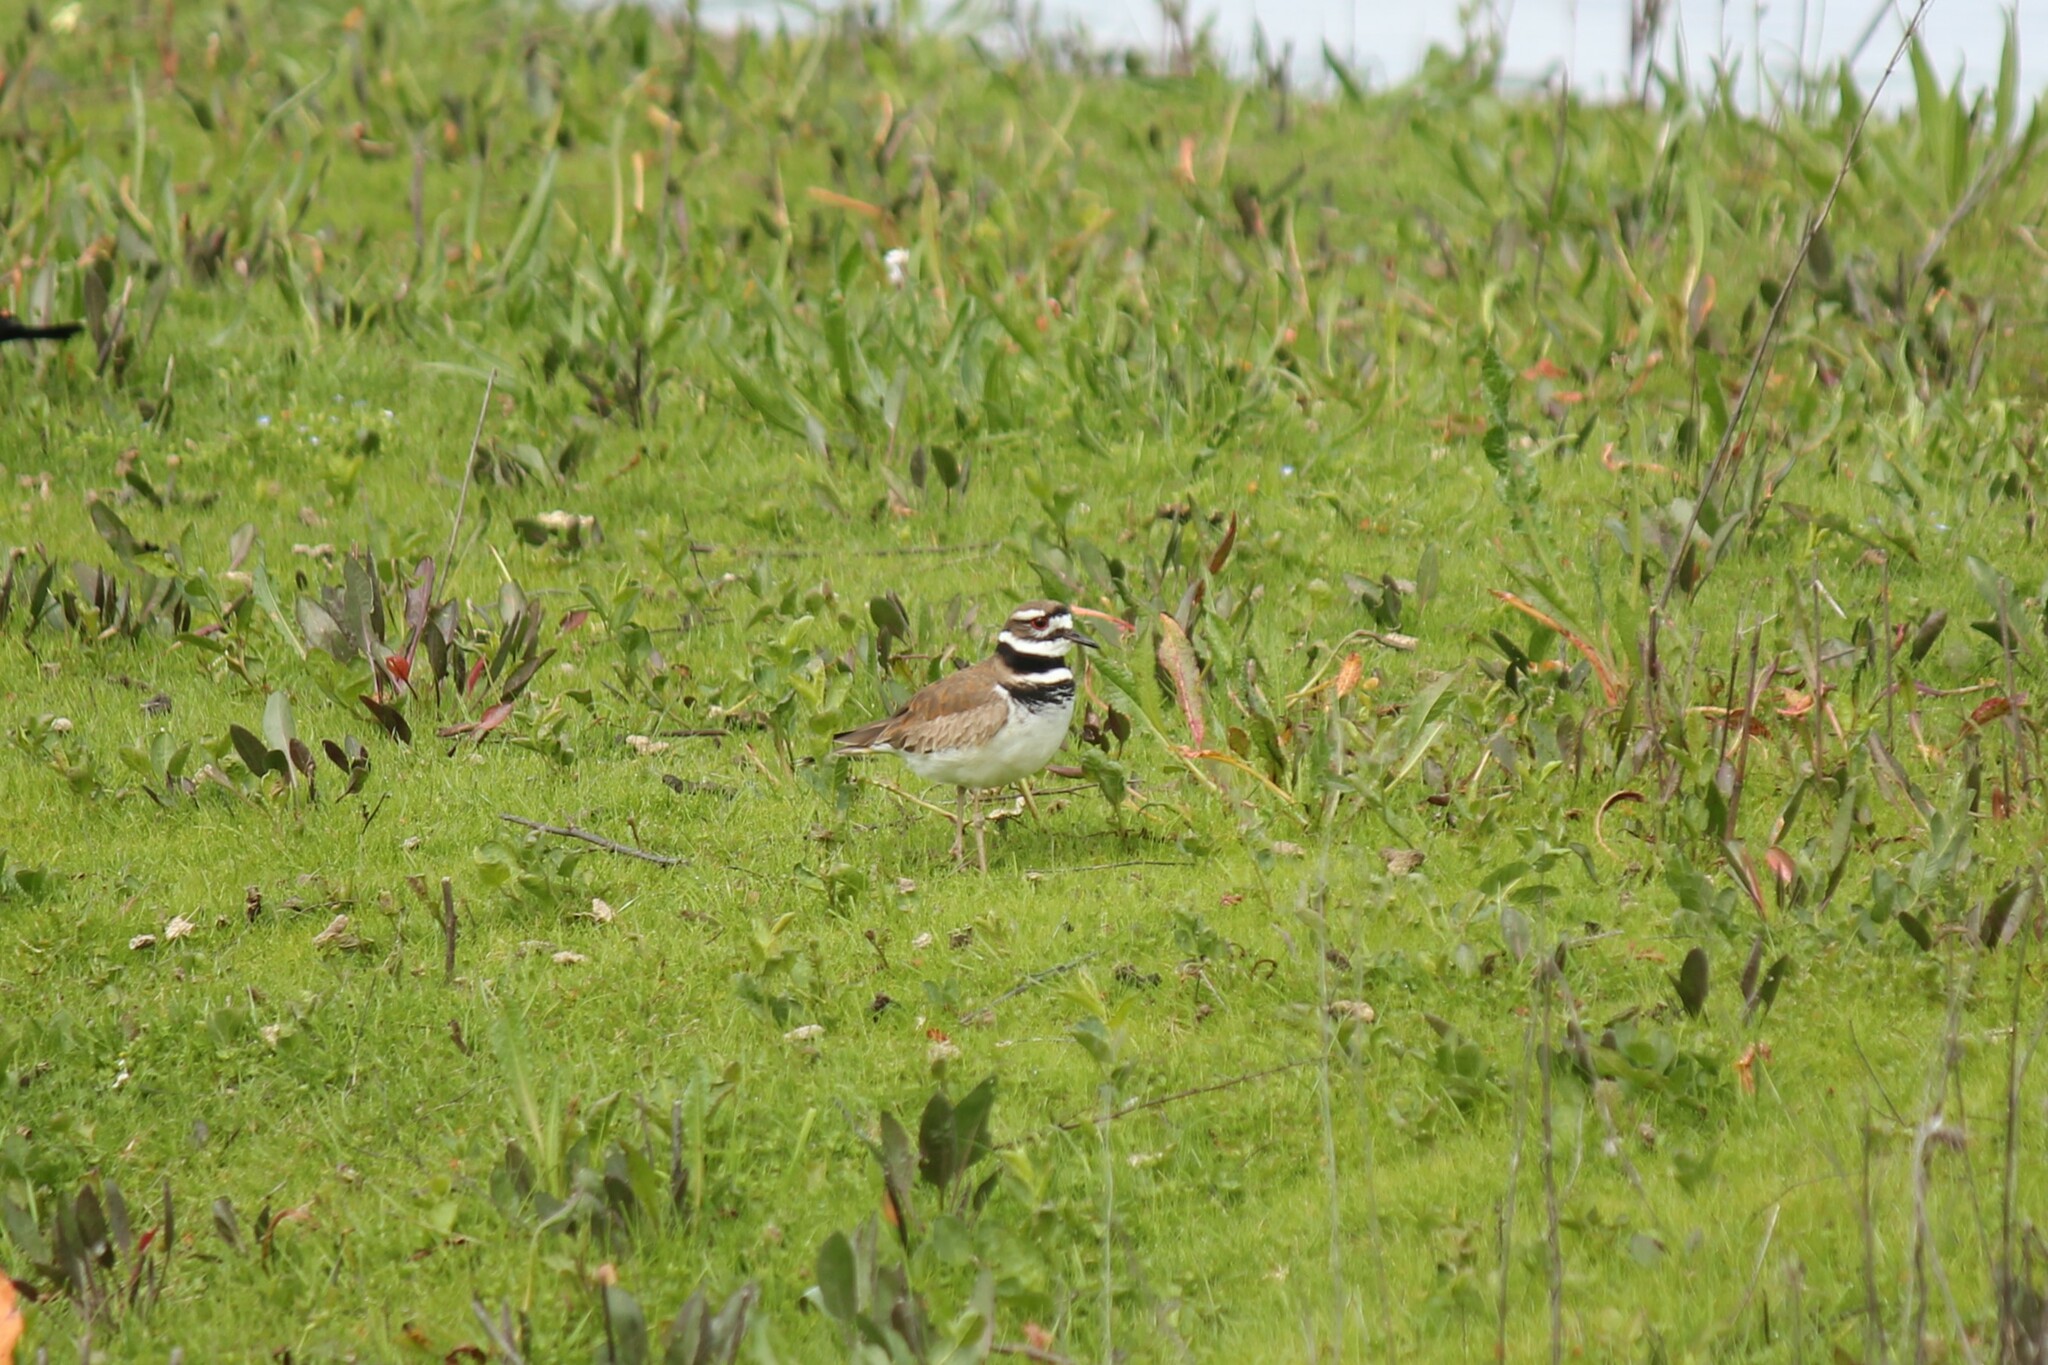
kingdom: Animalia
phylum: Chordata
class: Aves
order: Charadriiformes
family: Charadriidae
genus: Charadrius
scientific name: Charadrius vociferus
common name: Killdeer
